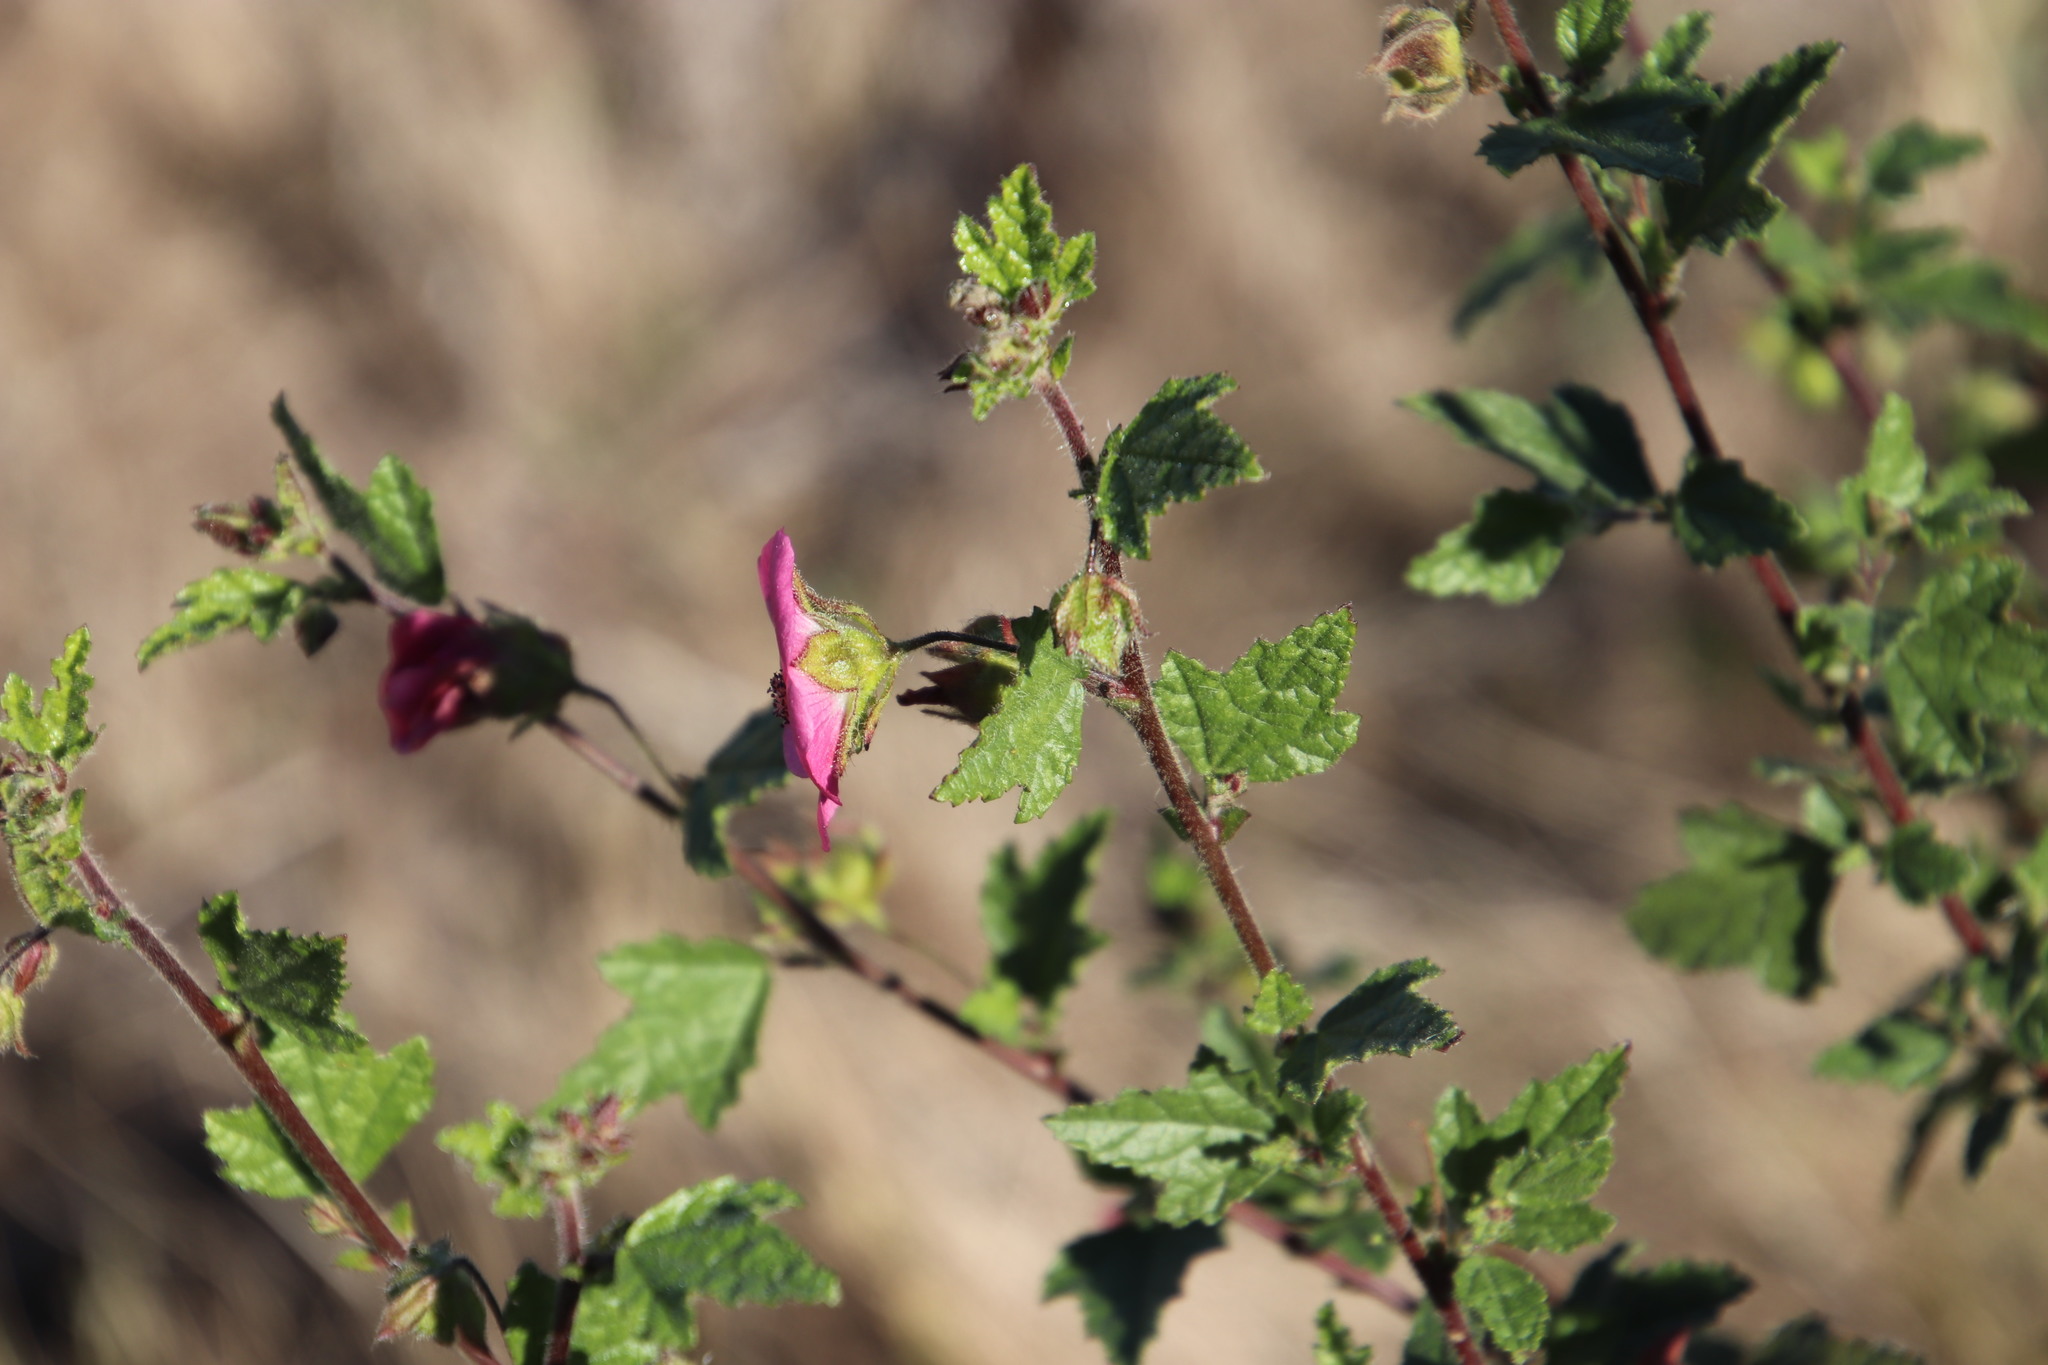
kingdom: Plantae
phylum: Tracheophyta
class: Magnoliopsida
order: Malvales
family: Malvaceae
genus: Anisodontea
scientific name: Anisodontea scabrosa
